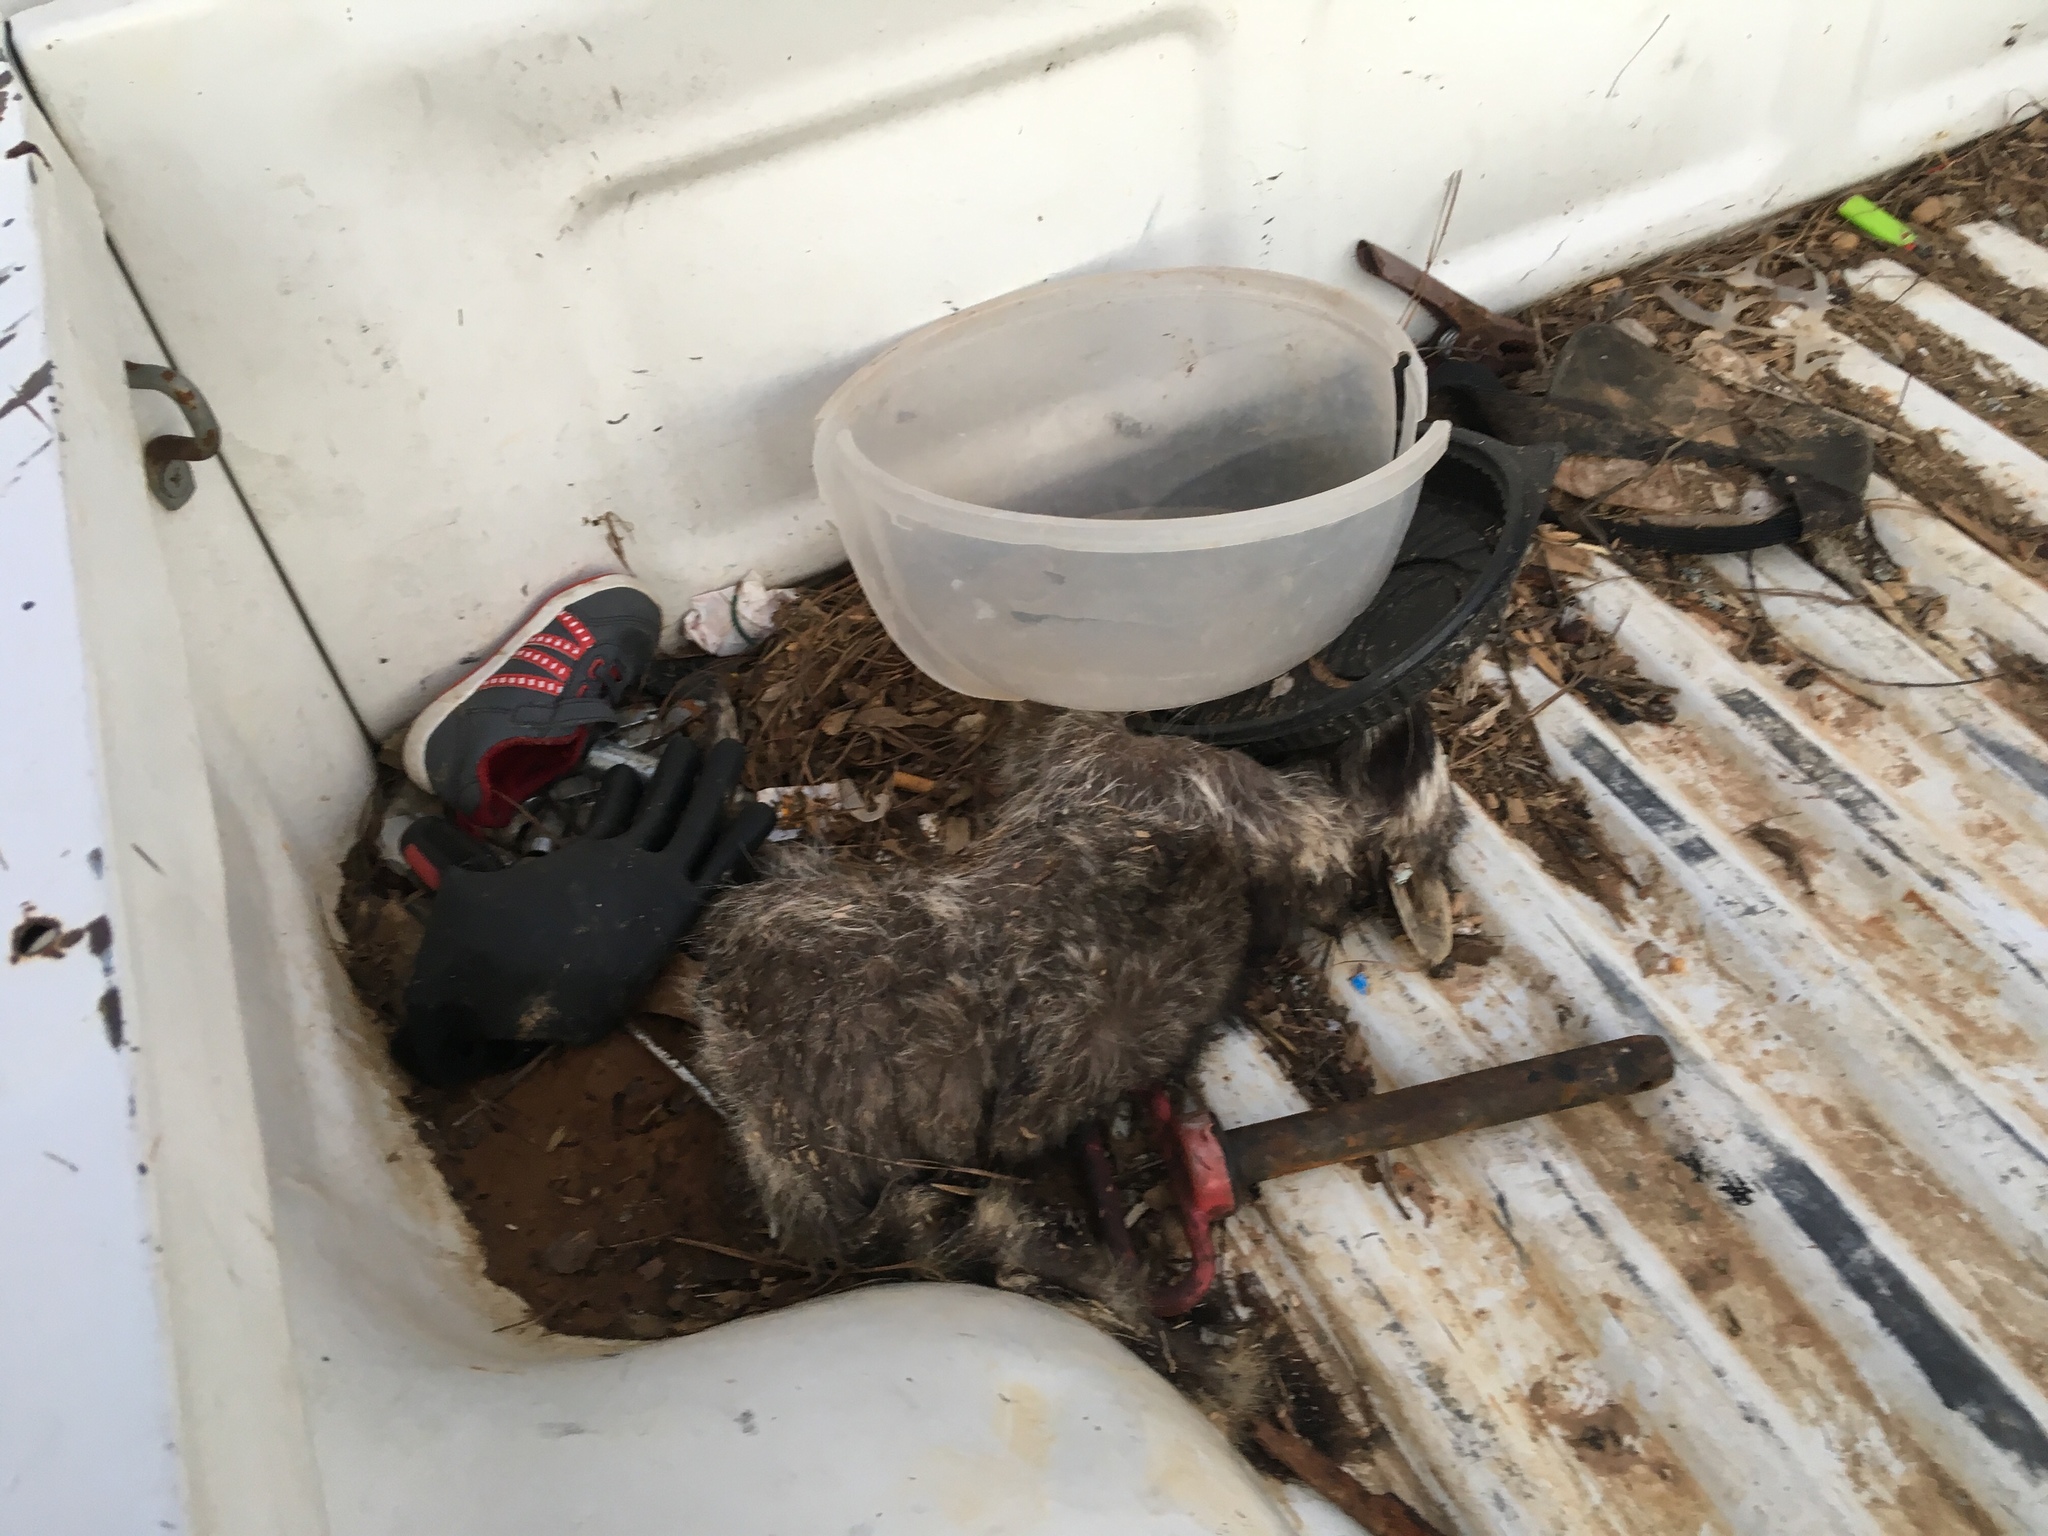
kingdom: Animalia
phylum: Chordata
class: Mammalia
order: Carnivora
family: Procyonidae
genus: Procyon
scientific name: Procyon lotor
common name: Raccoon
